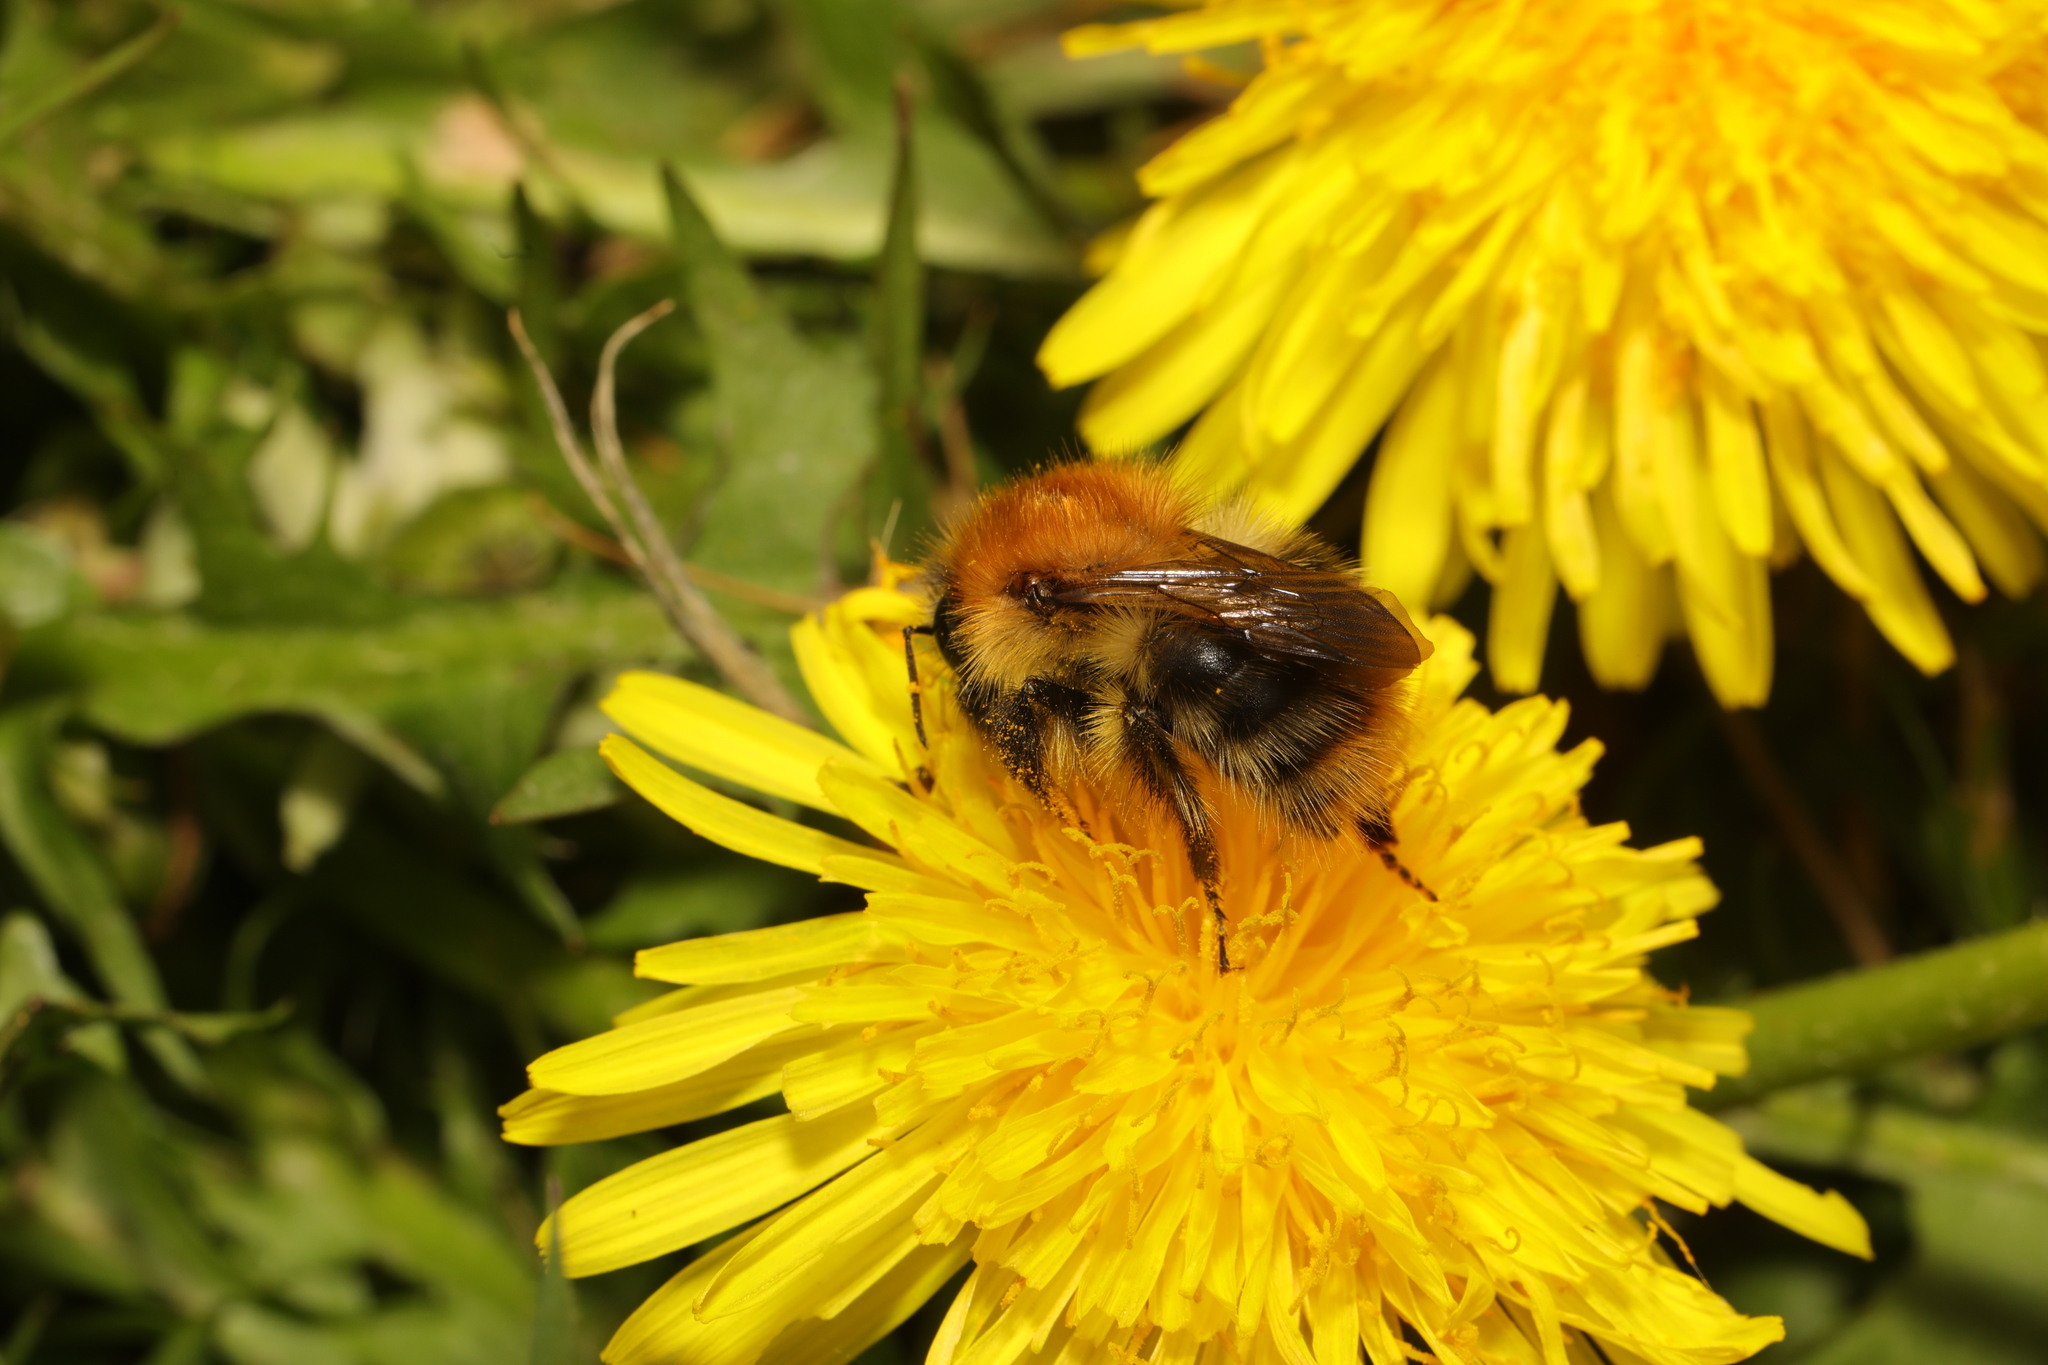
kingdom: Animalia
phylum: Arthropoda
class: Insecta
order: Hymenoptera
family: Apidae
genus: Bombus
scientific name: Bombus pascuorum
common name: Common carder bee
